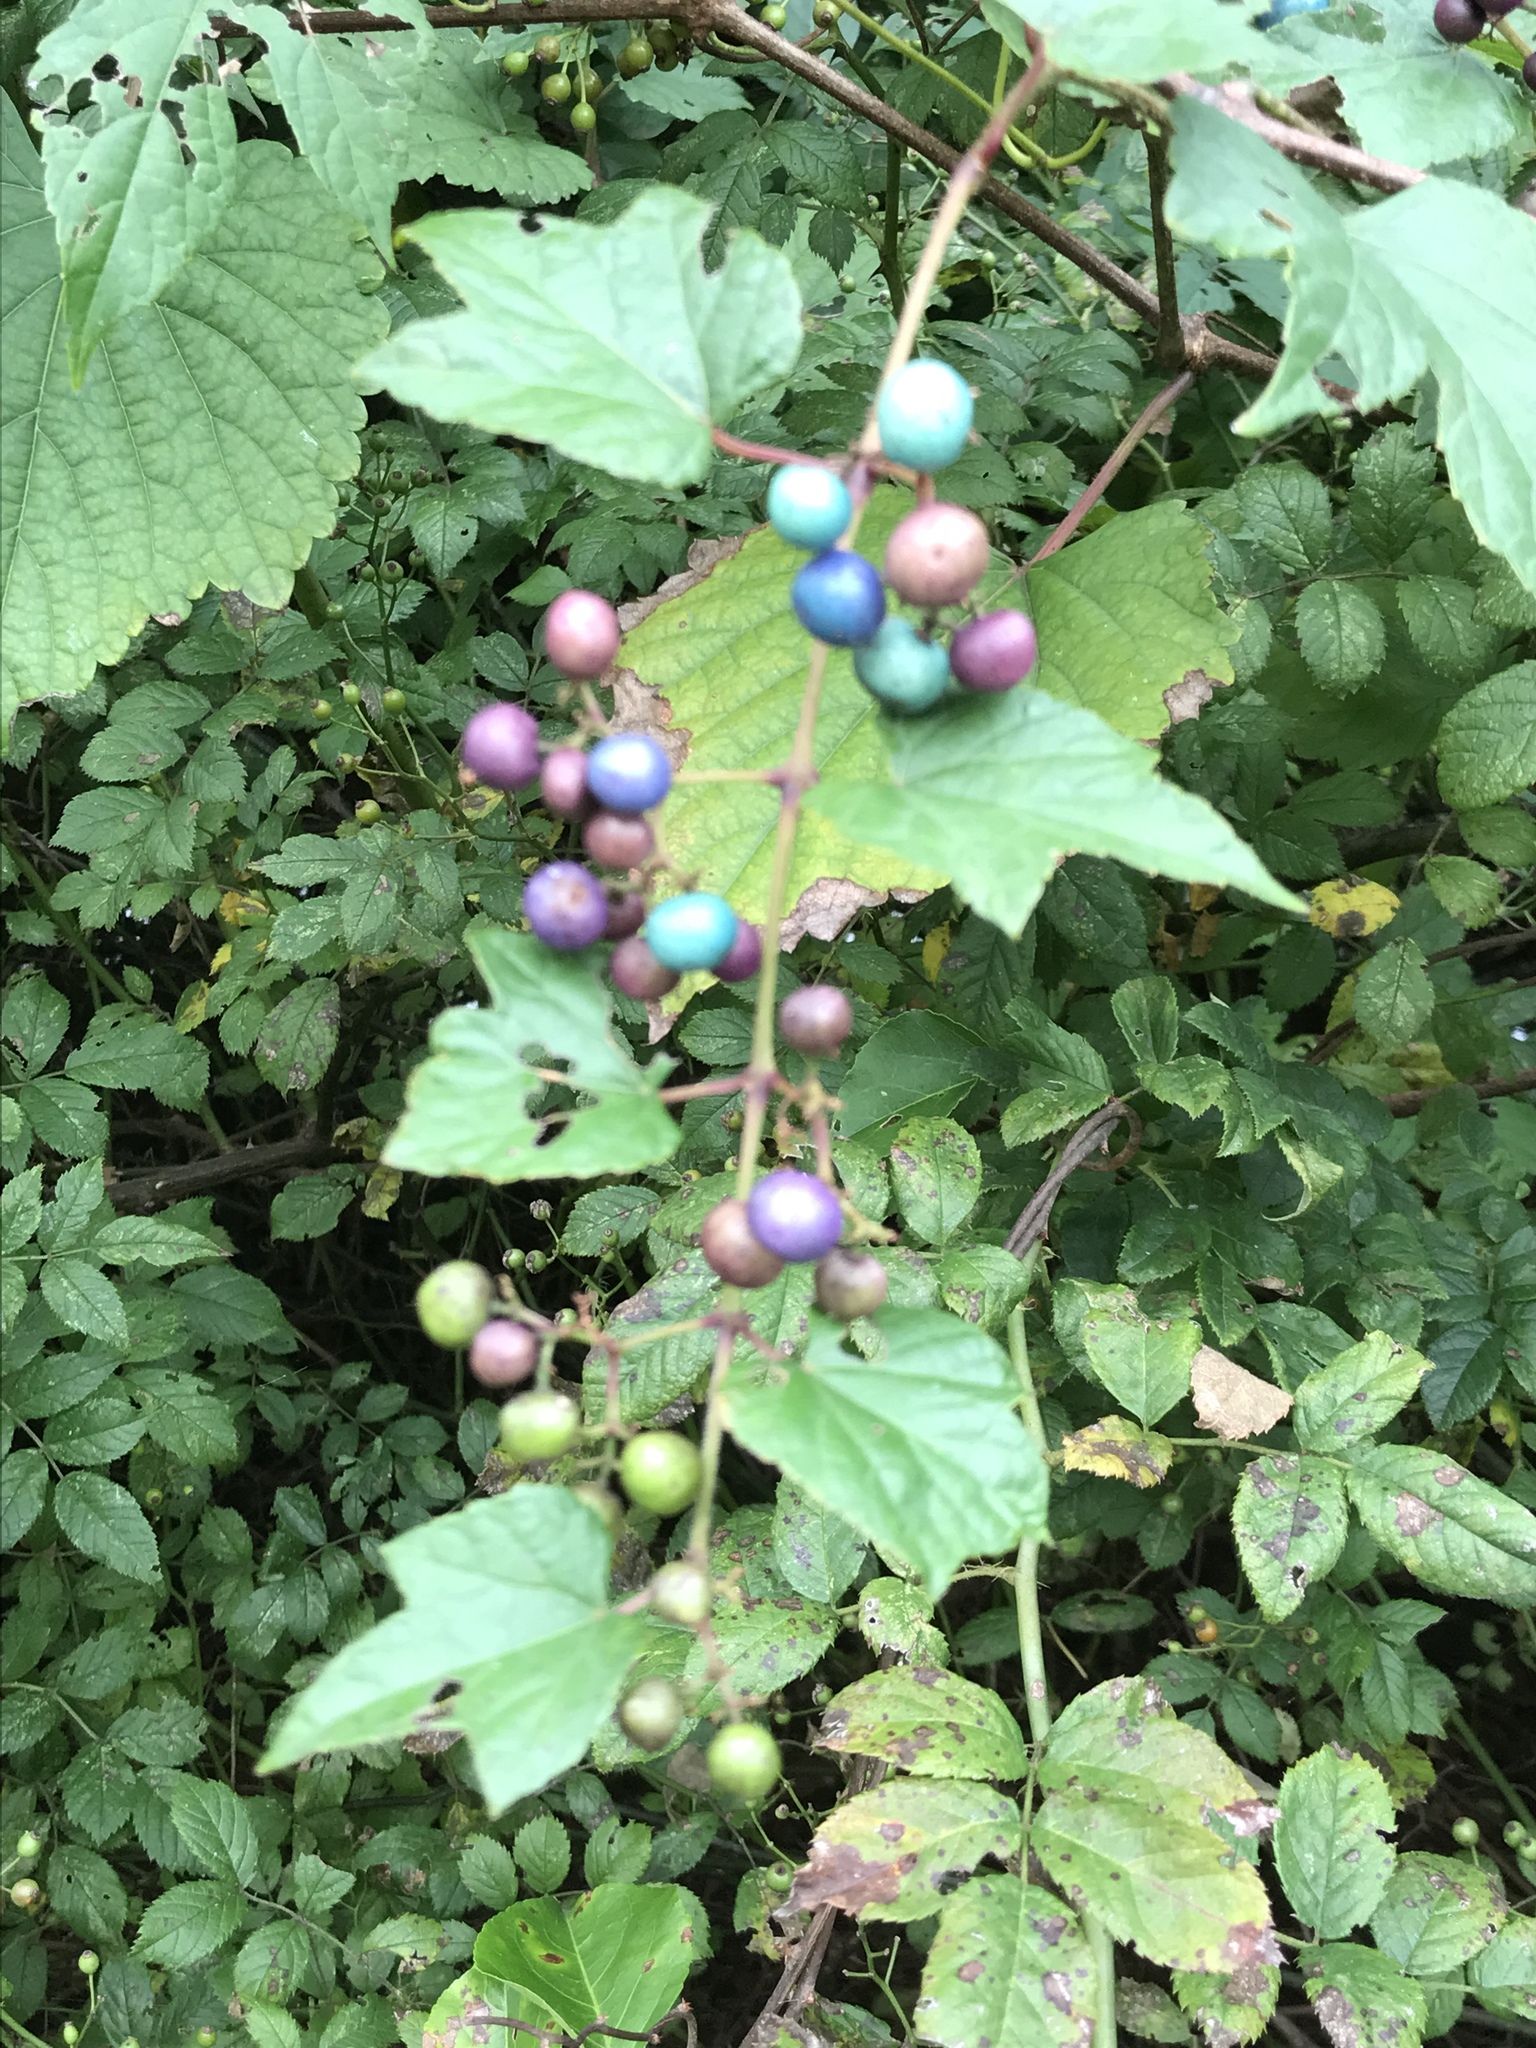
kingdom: Plantae
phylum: Tracheophyta
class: Magnoliopsida
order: Vitales
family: Vitaceae
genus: Ampelopsis
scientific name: Ampelopsis glandulosa
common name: Amur peppervine
